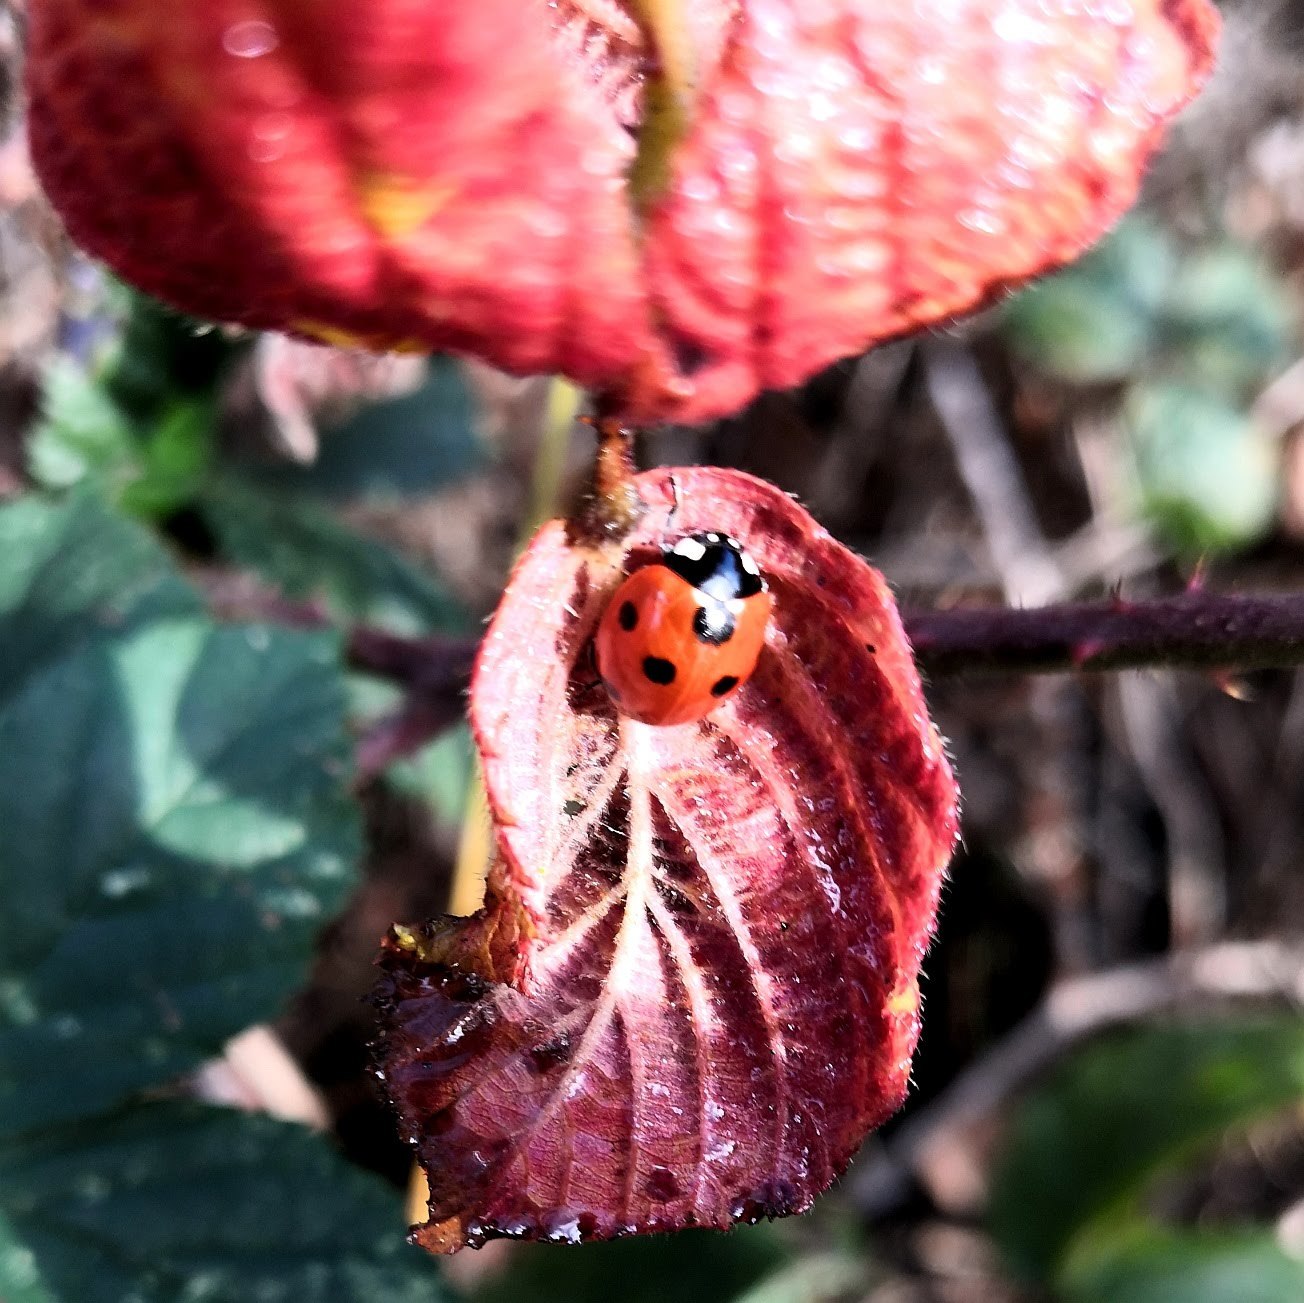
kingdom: Animalia
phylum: Arthropoda
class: Insecta
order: Coleoptera
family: Coccinellidae
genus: Coccinella
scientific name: Coccinella septempunctata
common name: Sevenspotted lady beetle
